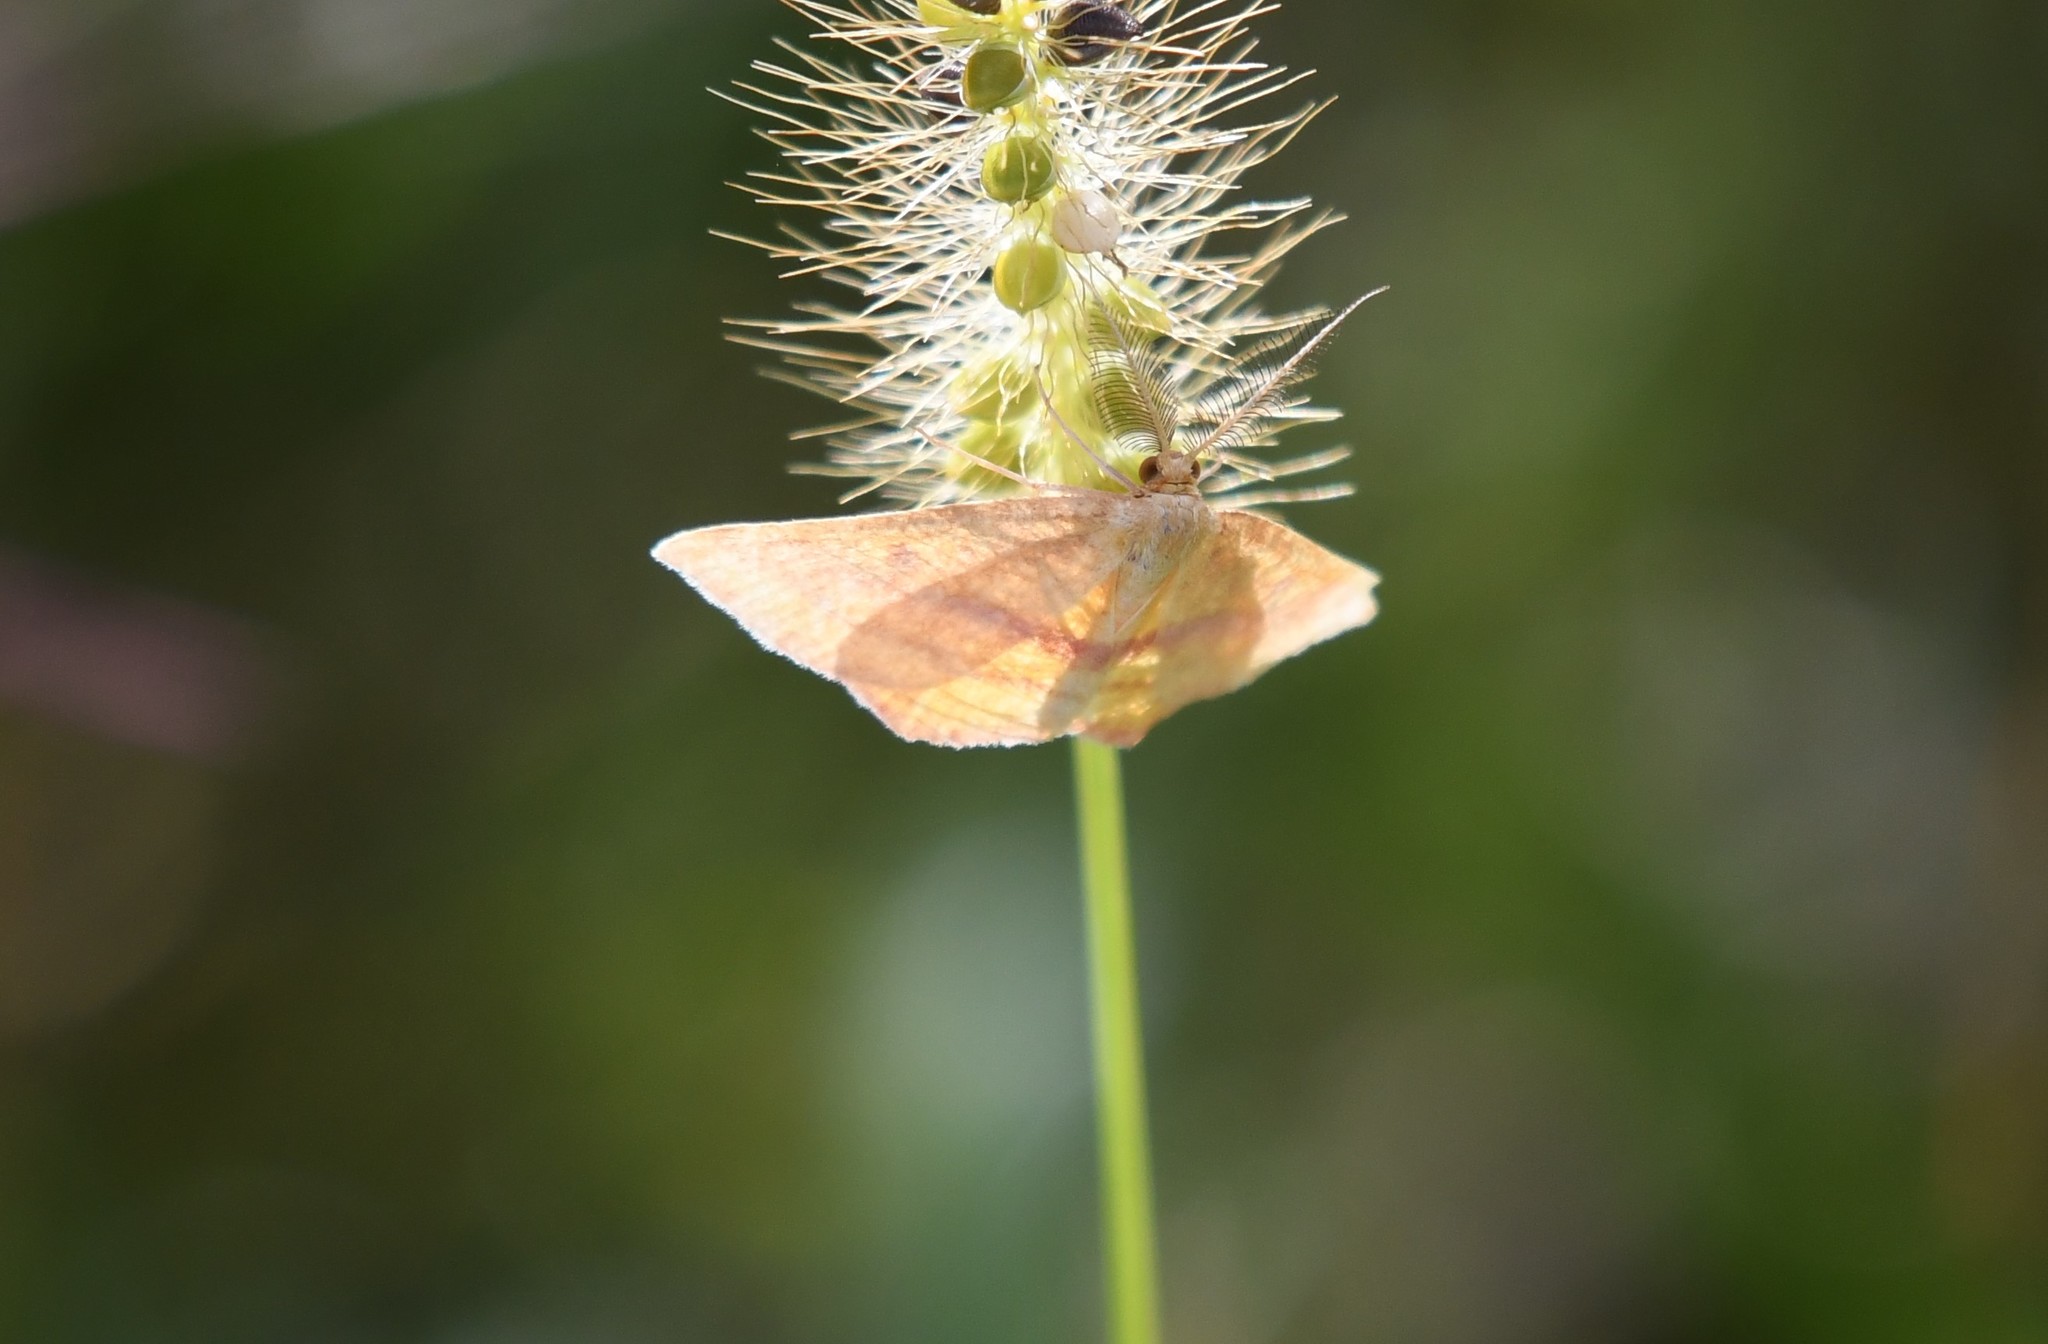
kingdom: Animalia
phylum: Arthropoda
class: Insecta
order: Lepidoptera
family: Geometridae
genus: Haematopis
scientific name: Haematopis grataria
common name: Chickweed geometer
